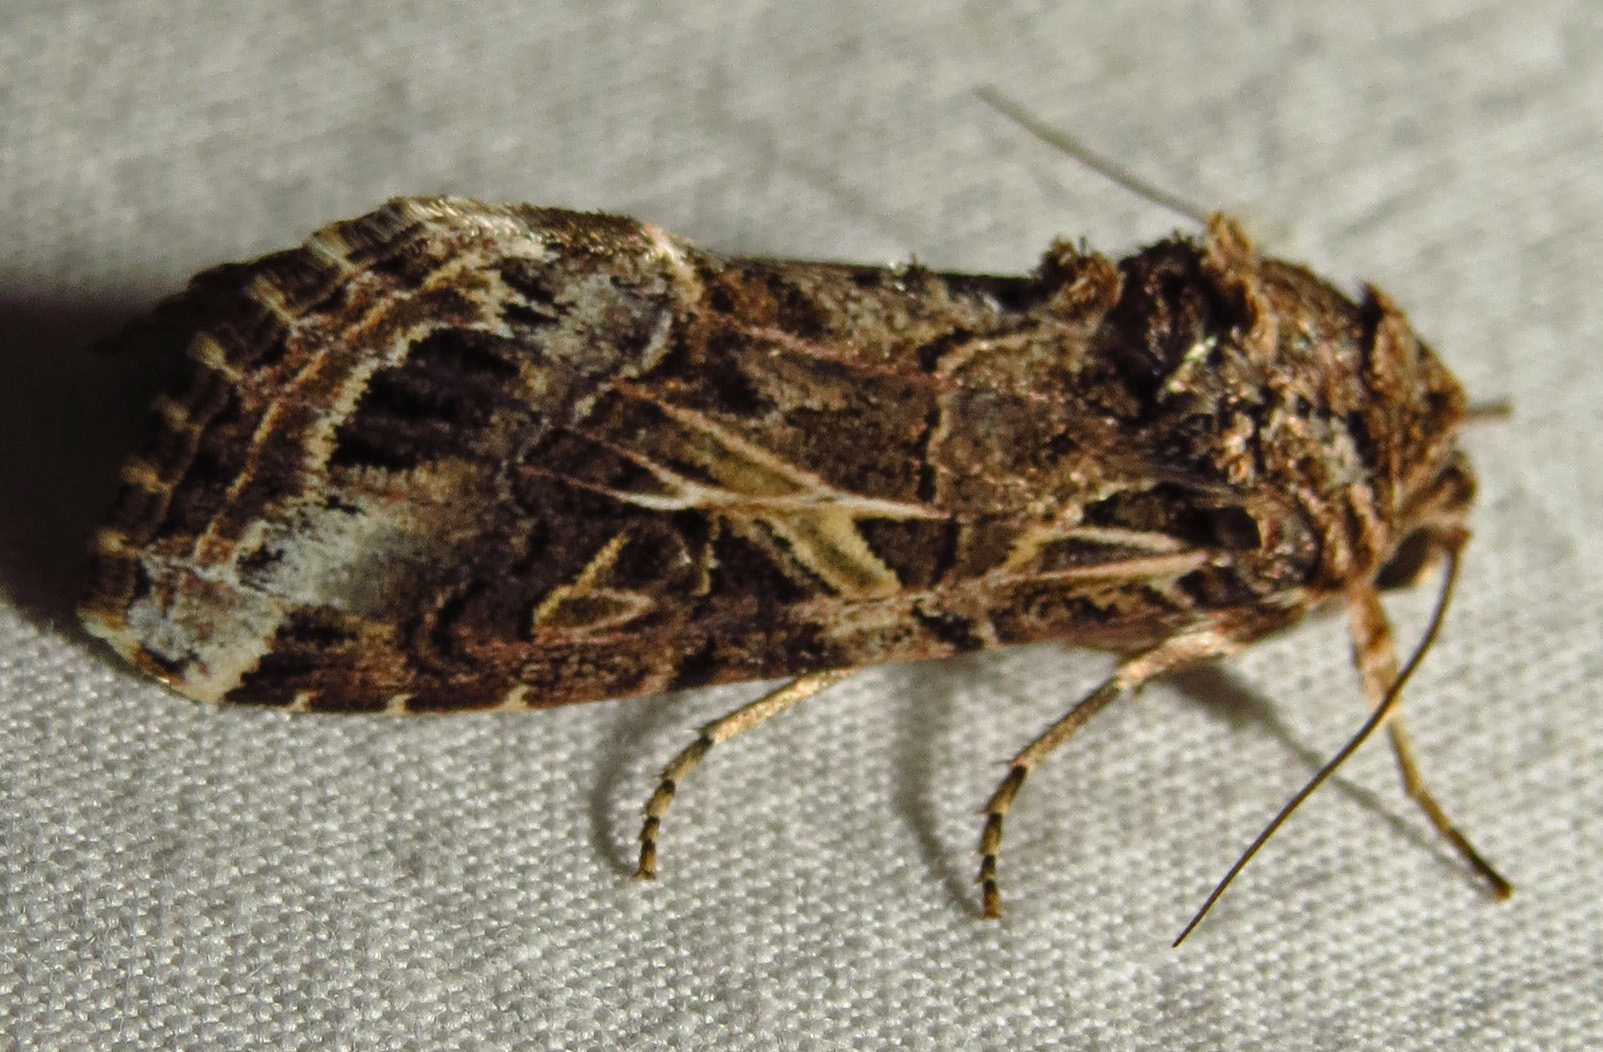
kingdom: Animalia
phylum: Arthropoda
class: Insecta
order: Lepidoptera
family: Noctuidae
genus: Spodoptera
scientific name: Spodoptera ornithogalli
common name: Yellow-striped armyworm
